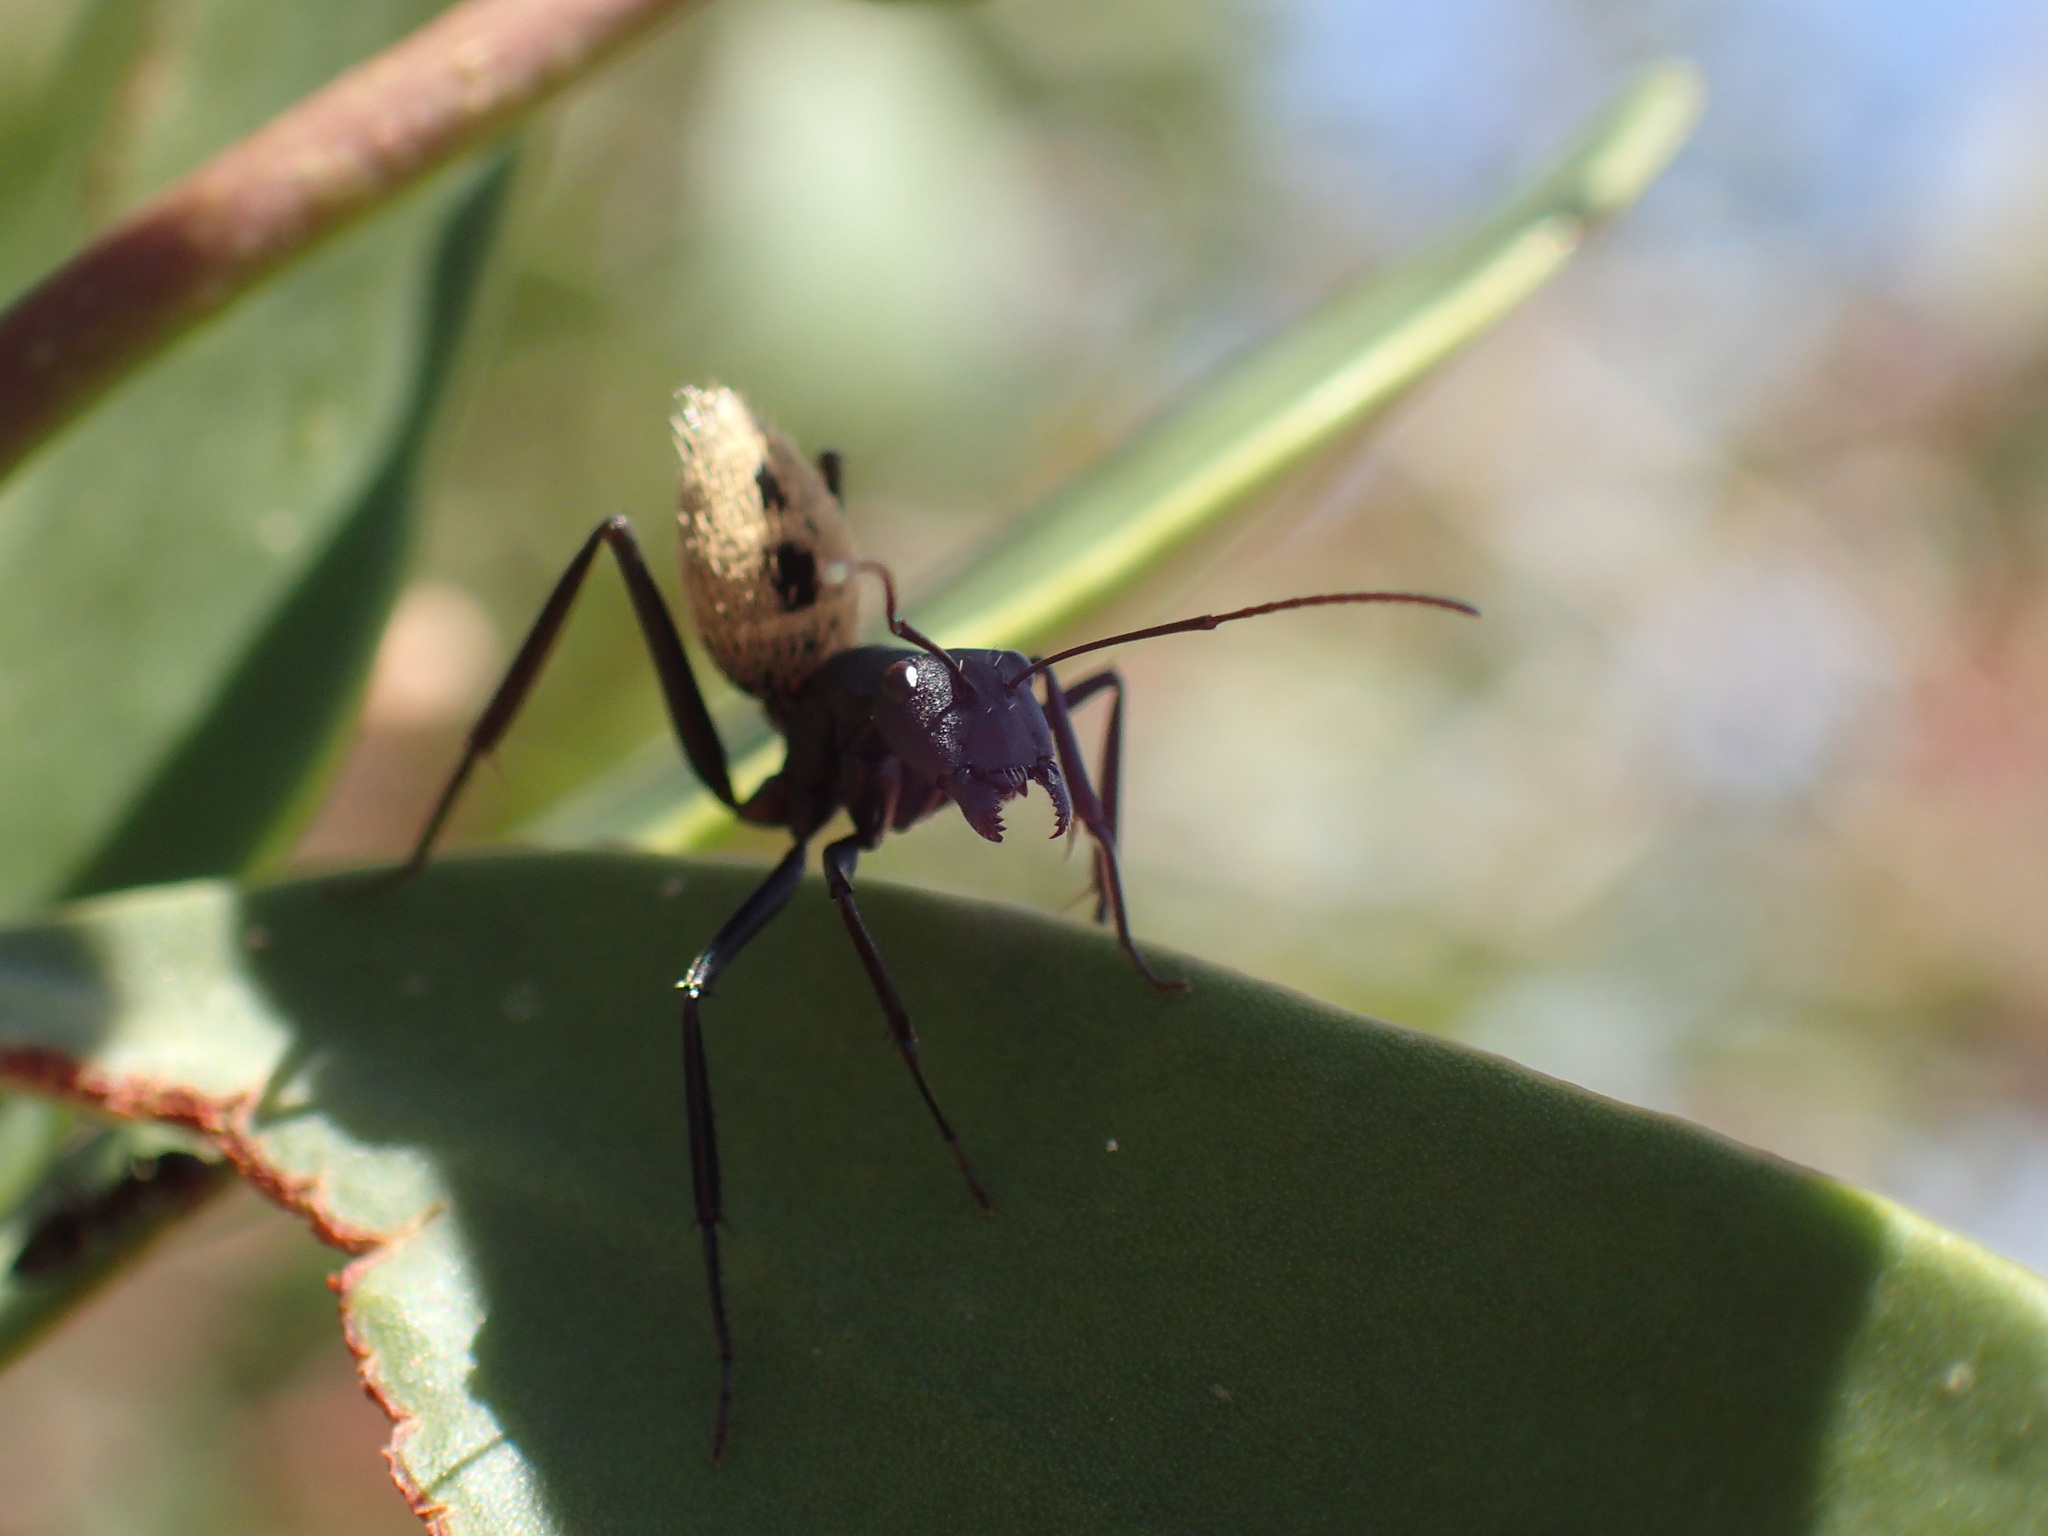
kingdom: Animalia
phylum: Arthropoda
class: Insecta
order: Hymenoptera
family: Formicidae
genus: Camponotus
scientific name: Camponotus fulvopilosus
